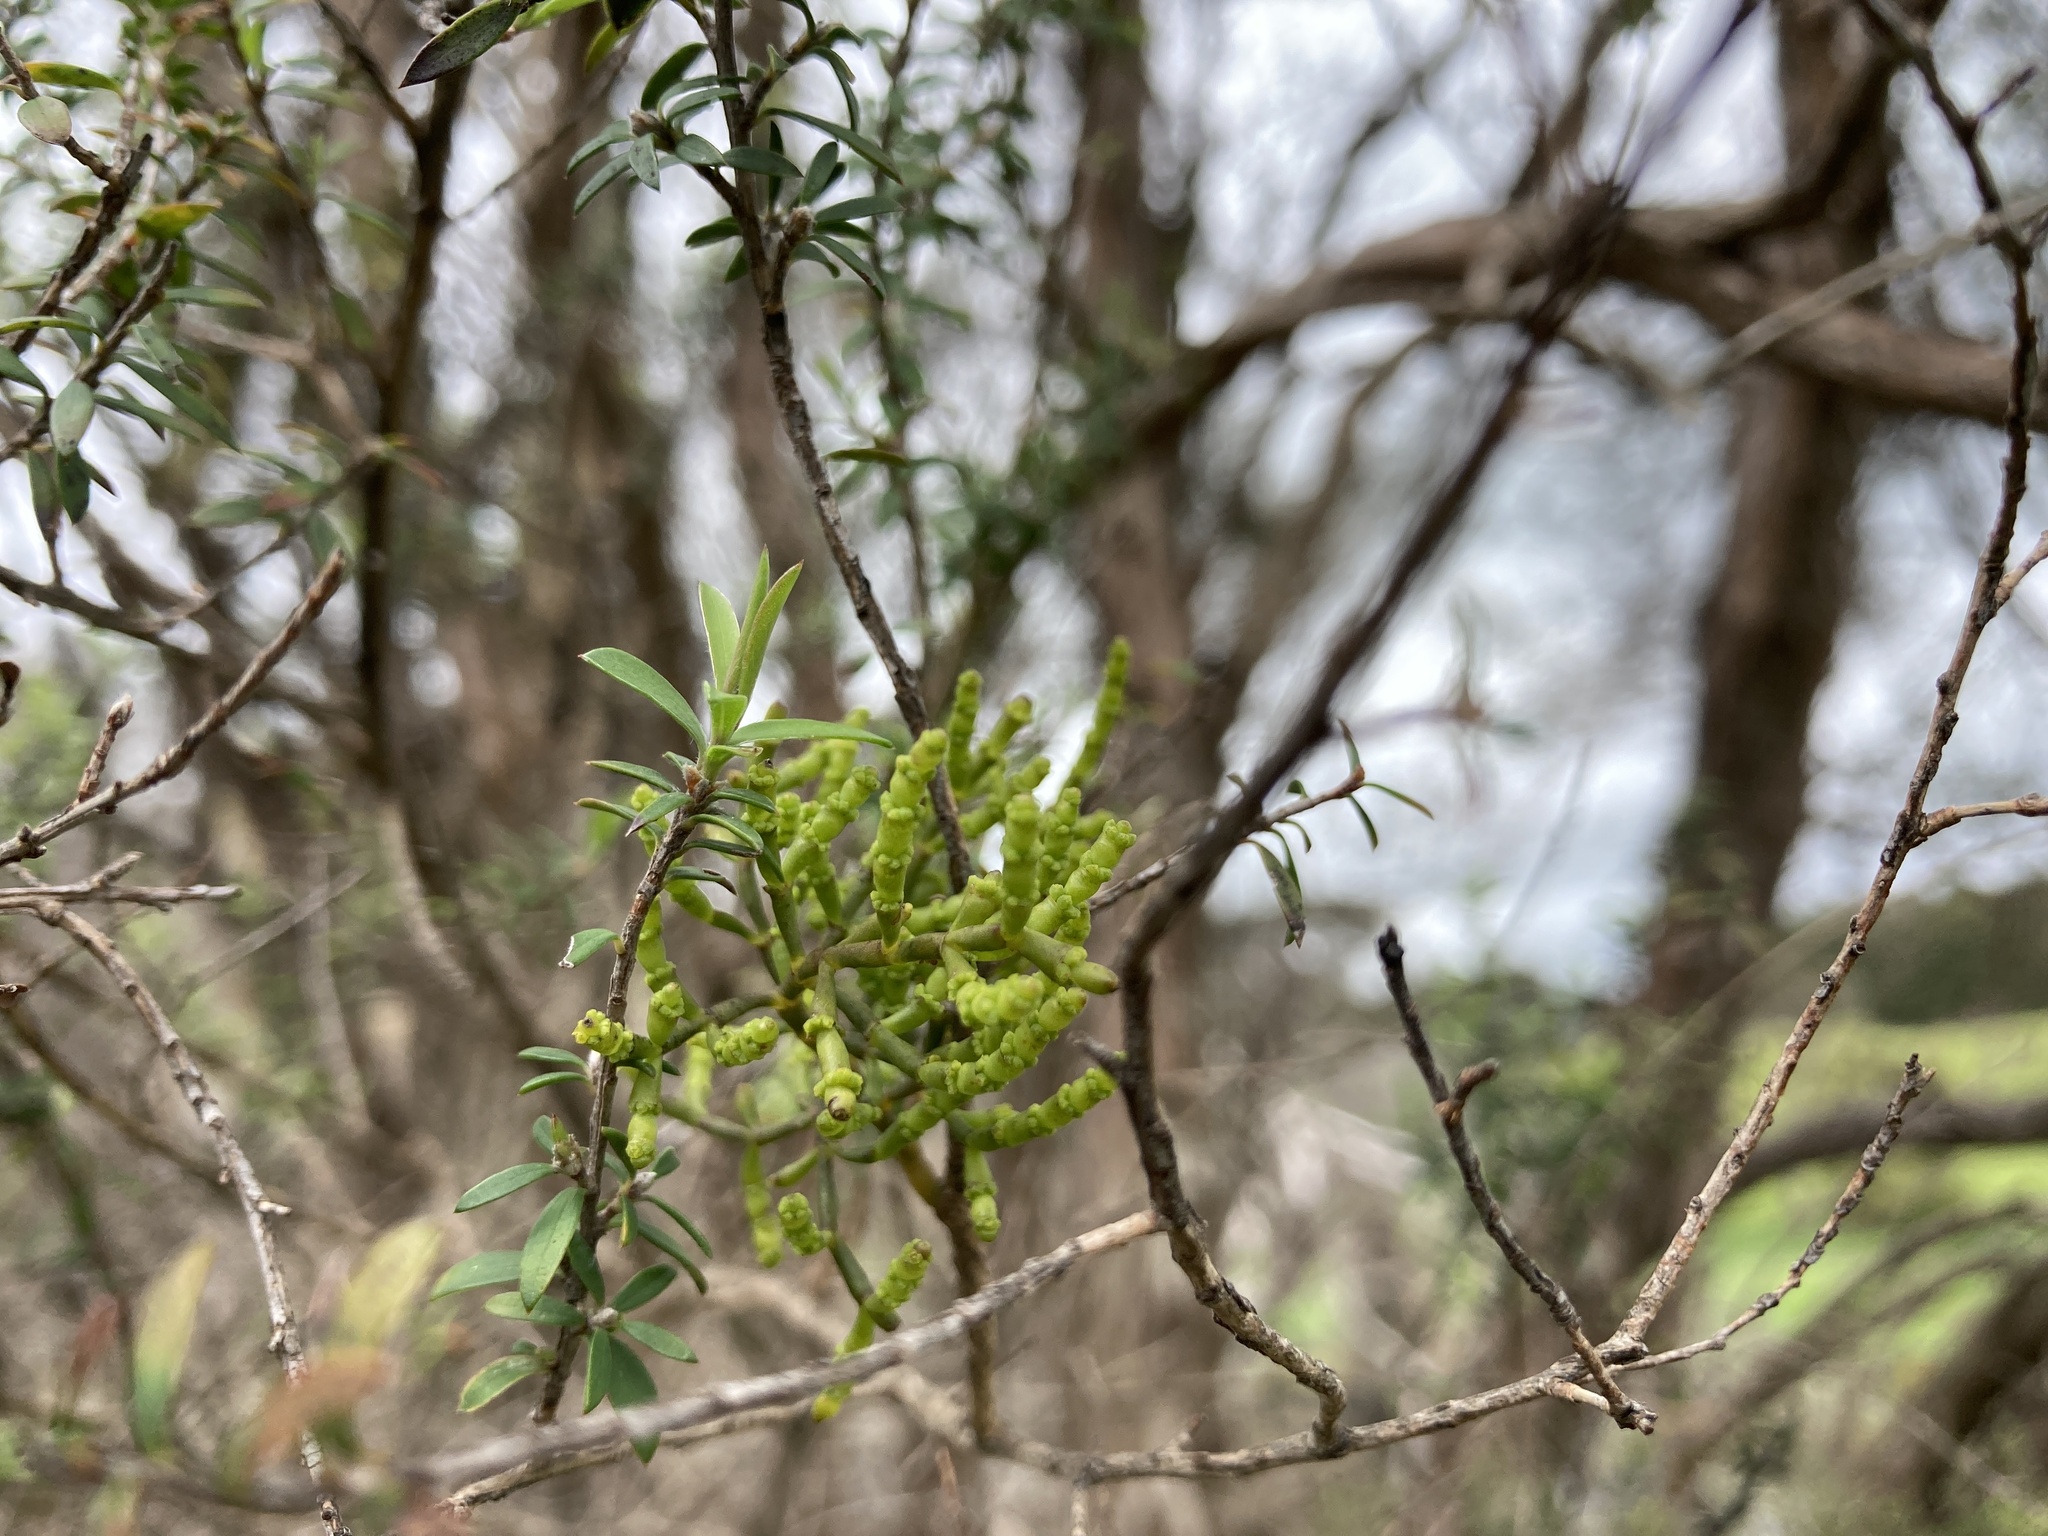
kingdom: Plantae
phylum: Tracheophyta
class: Magnoliopsida
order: Santalales
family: Viscaceae
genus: Korthalsella
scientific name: Korthalsella salicornioides
